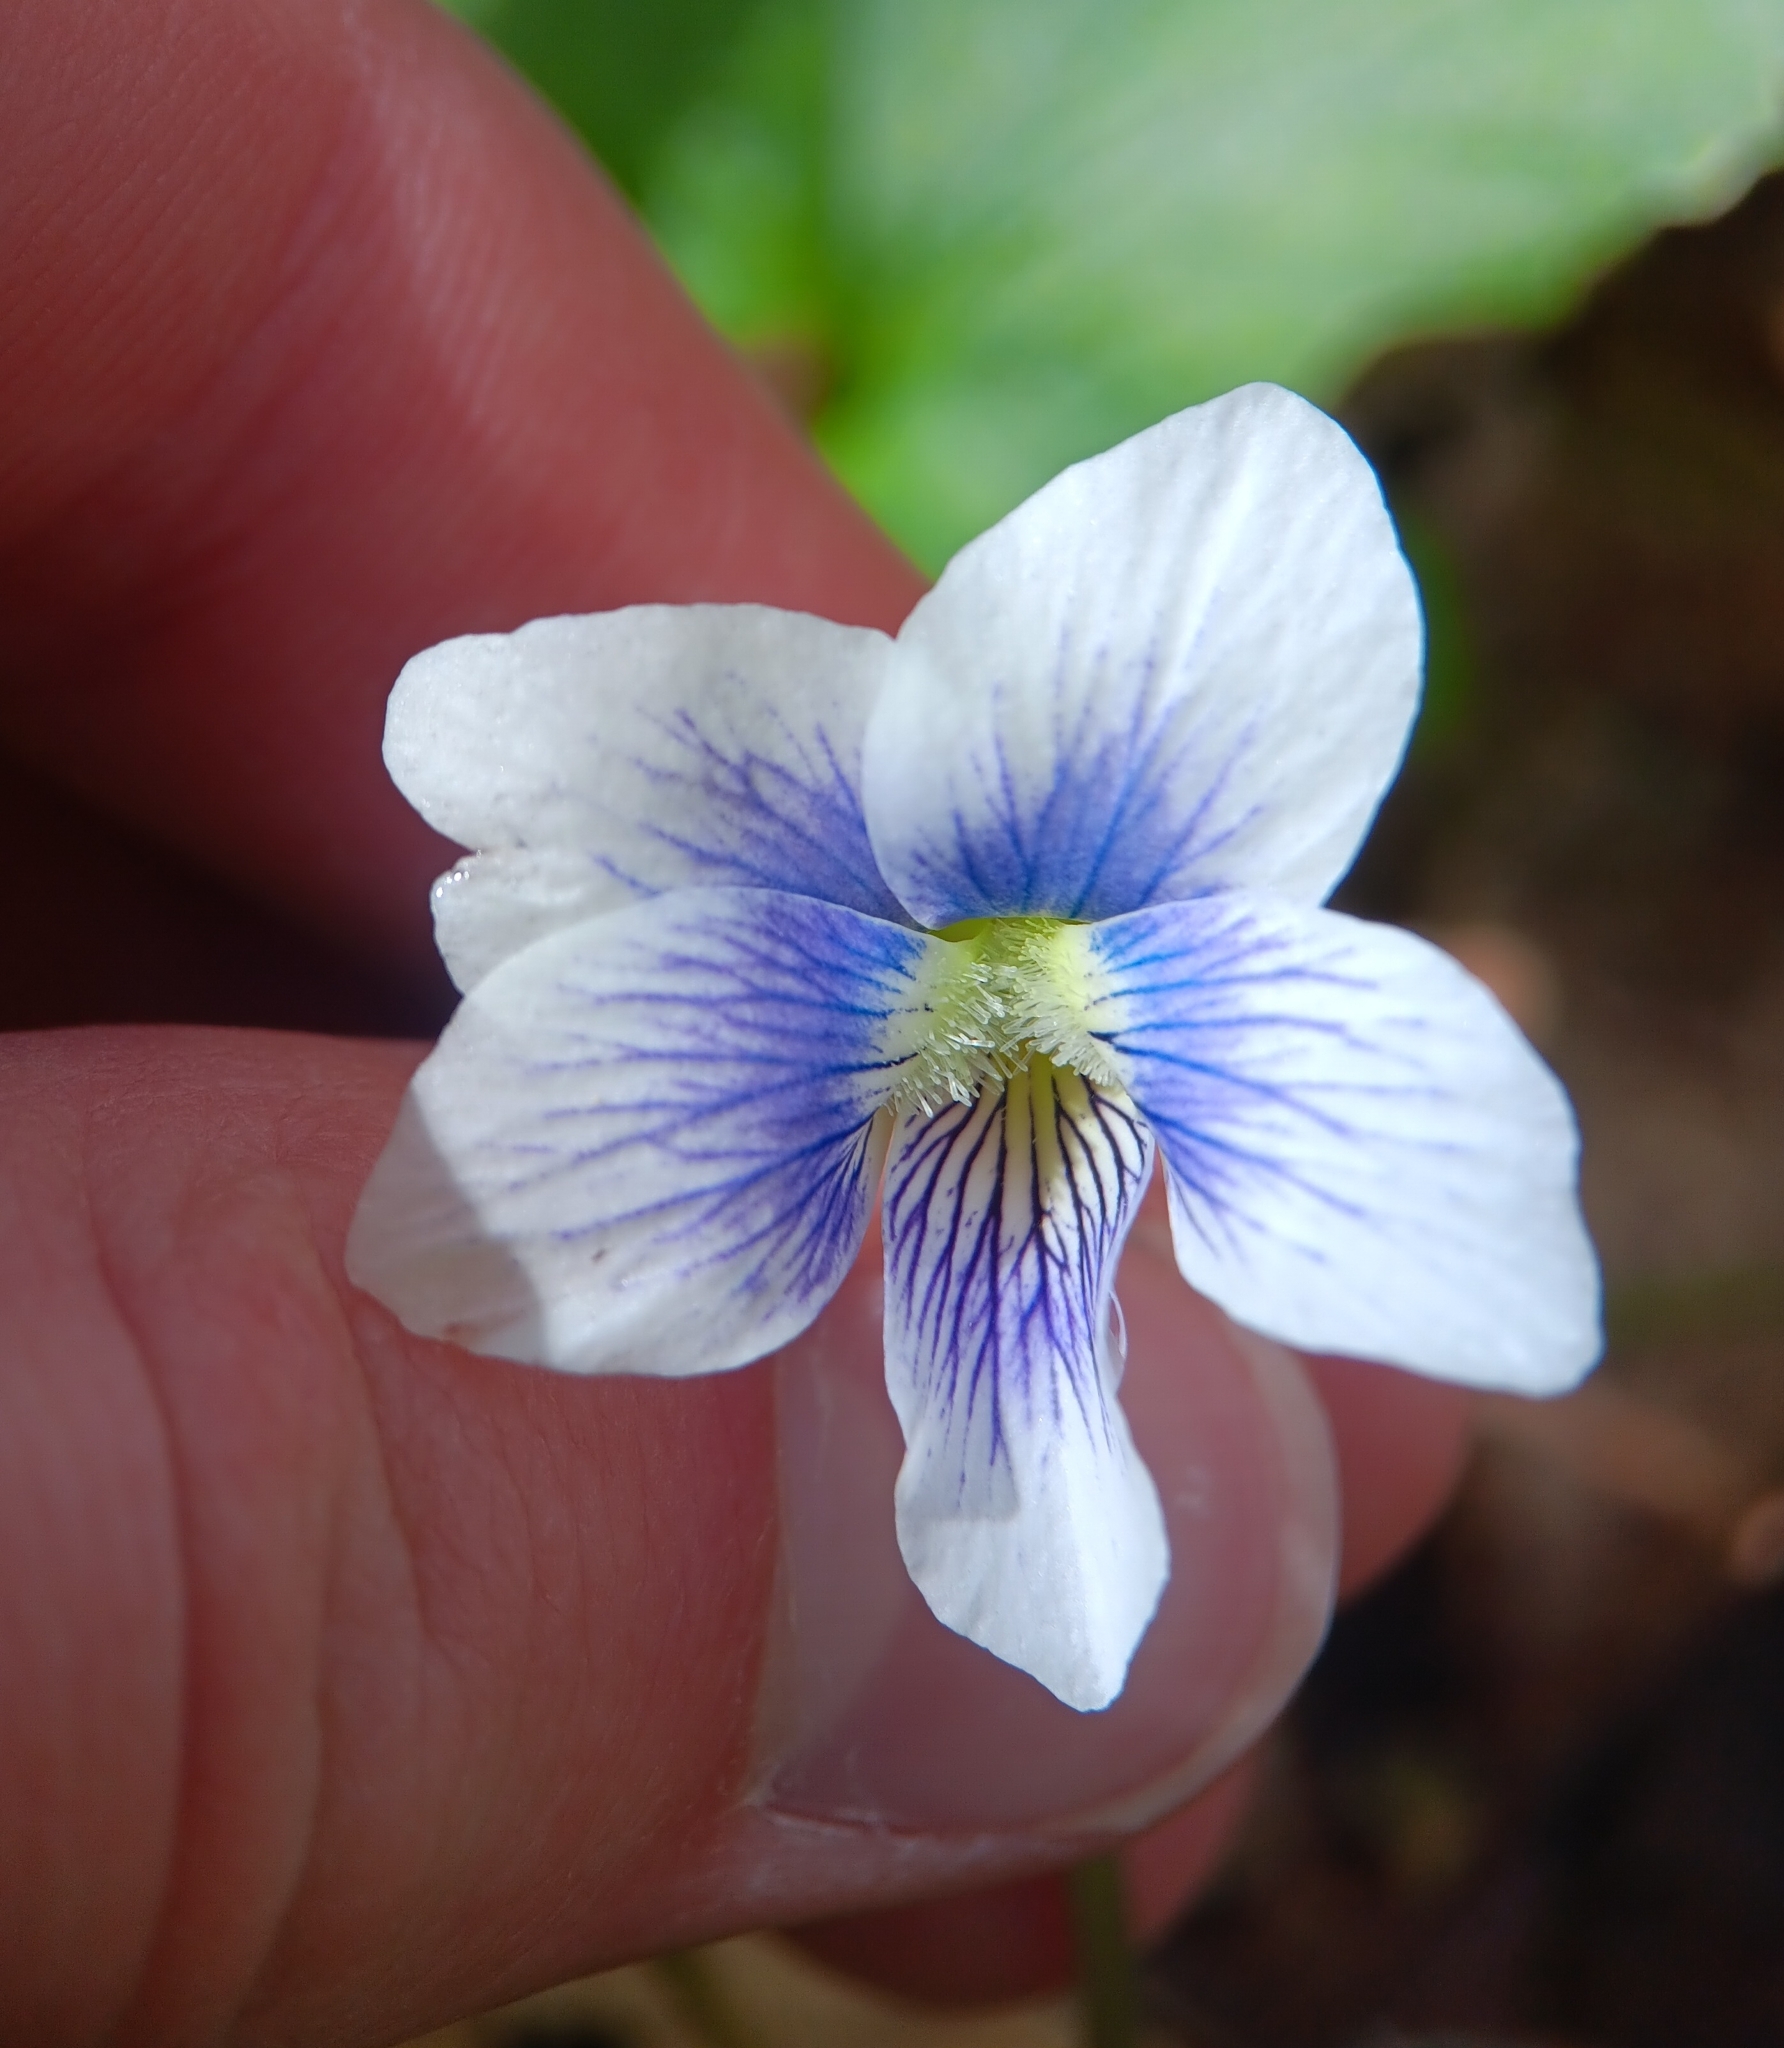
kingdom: Plantae
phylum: Tracheophyta
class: Magnoliopsida
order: Malpighiales
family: Violaceae
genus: Viola
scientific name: Viola sororia
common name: Dooryard violet
